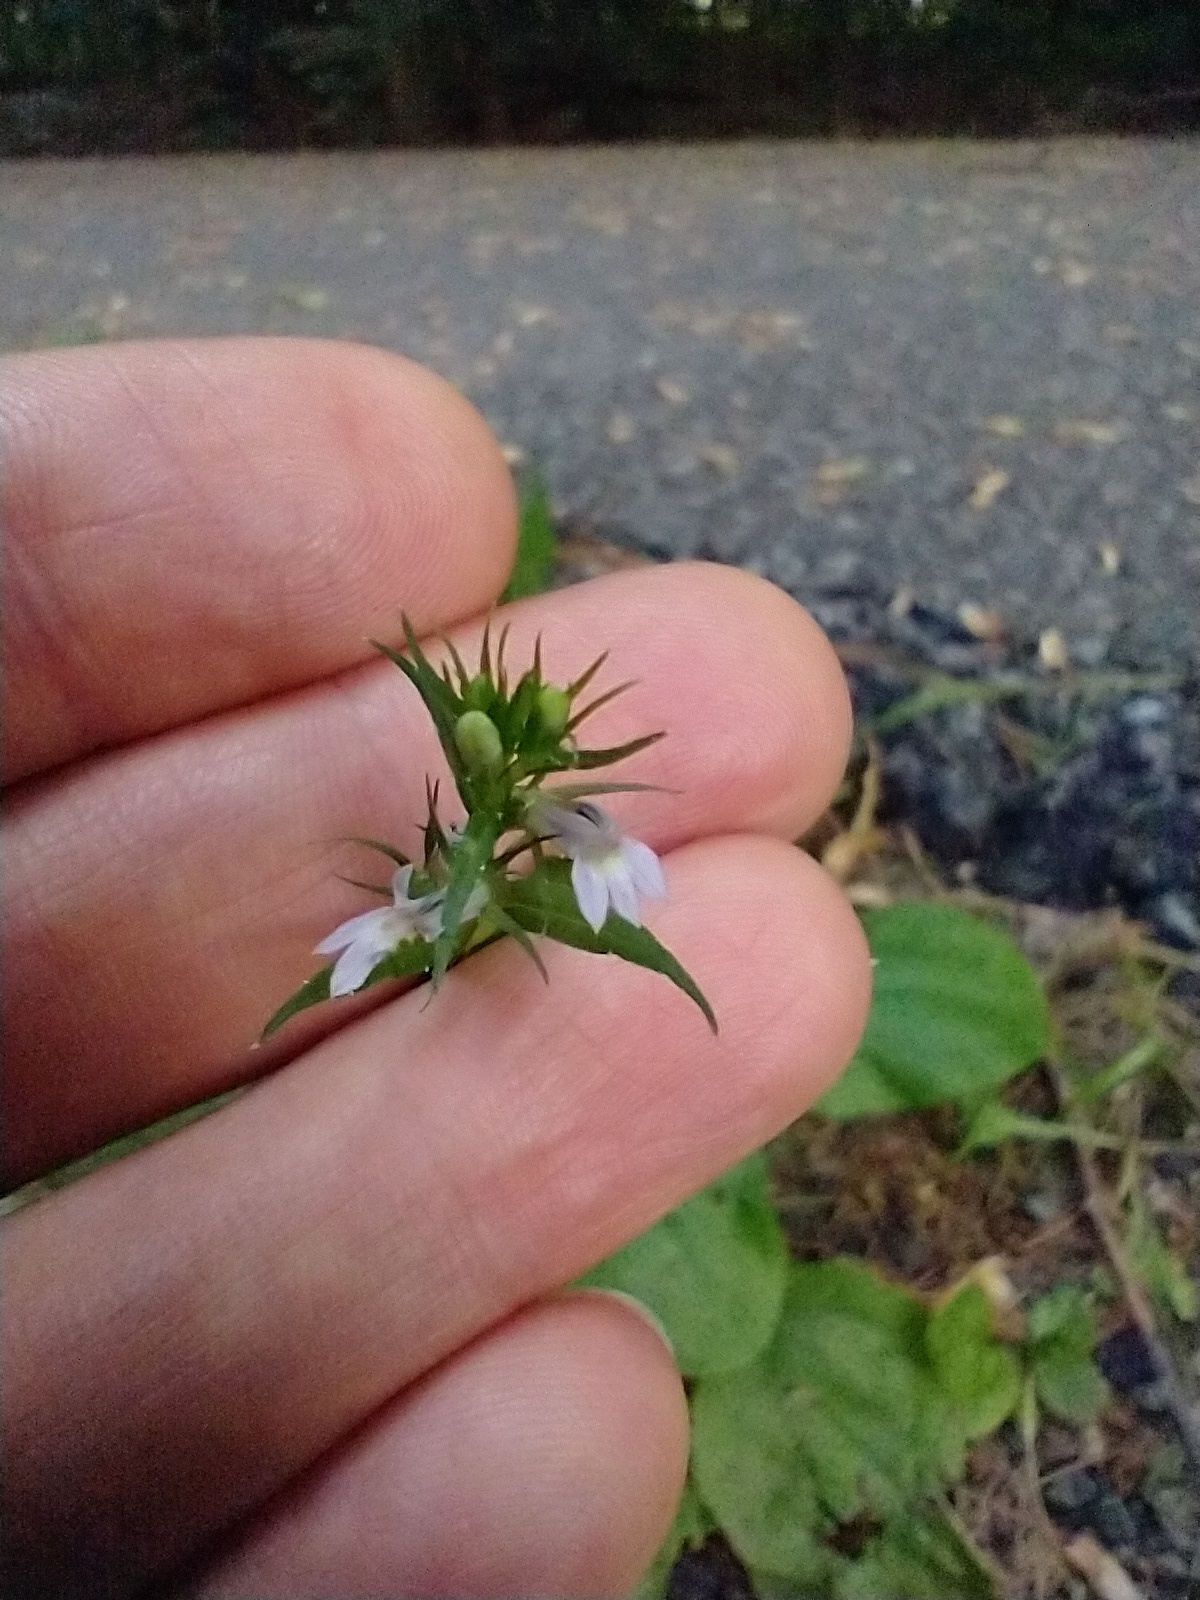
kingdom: Plantae
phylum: Tracheophyta
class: Magnoliopsida
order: Asterales
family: Campanulaceae
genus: Lobelia
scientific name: Lobelia inflata
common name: Indian tobacco
